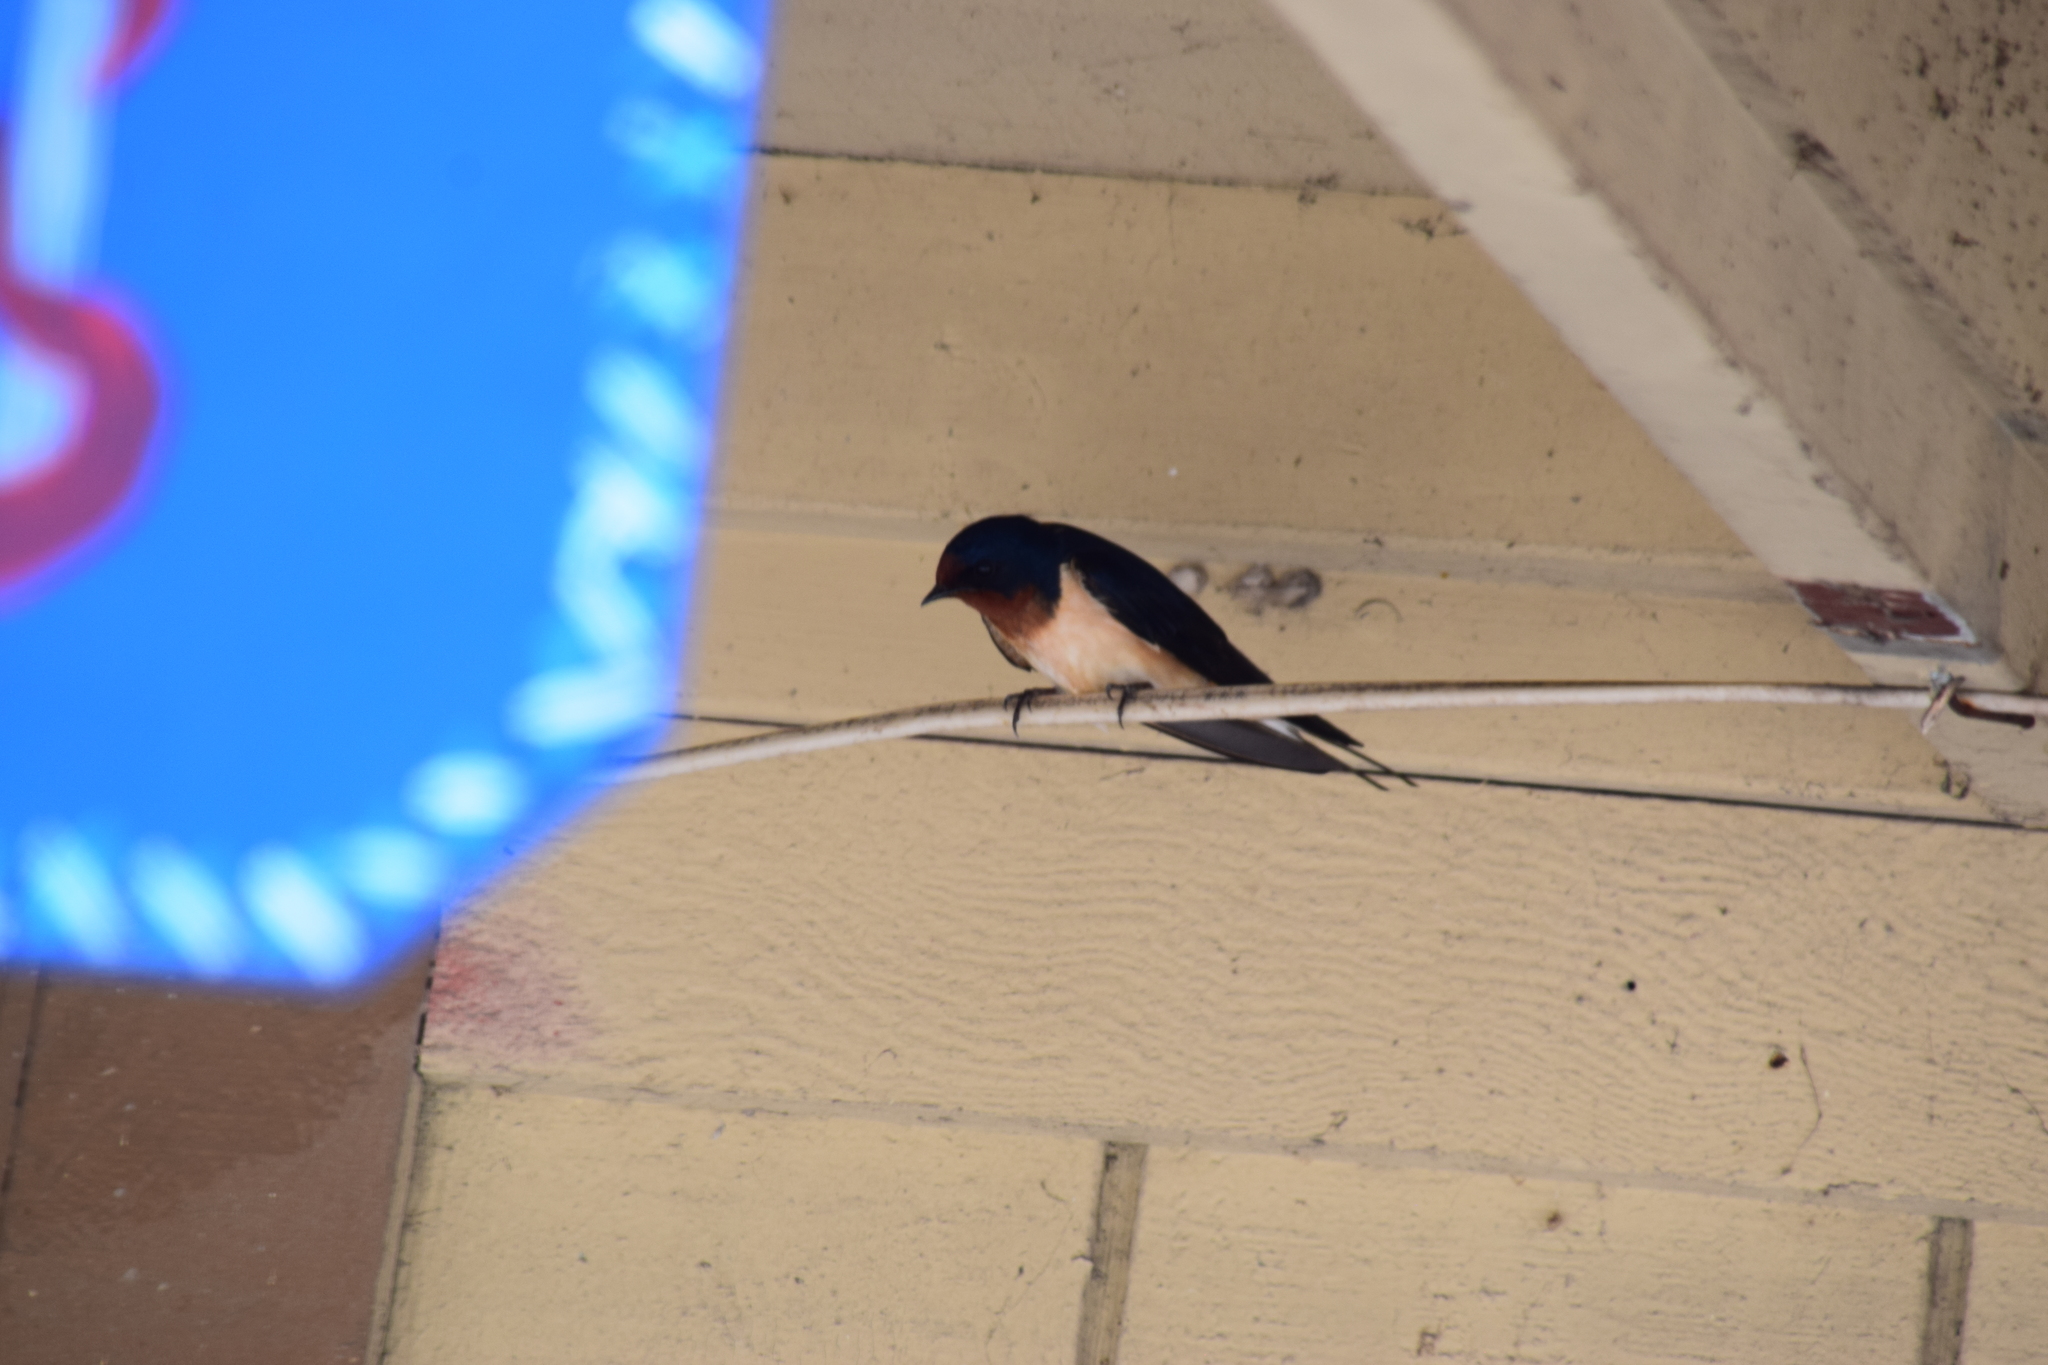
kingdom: Animalia
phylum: Chordata
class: Aves
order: Passeriformes
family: Hirundinidae
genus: Hirundo
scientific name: Hirundo rustica
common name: Barn swallow
